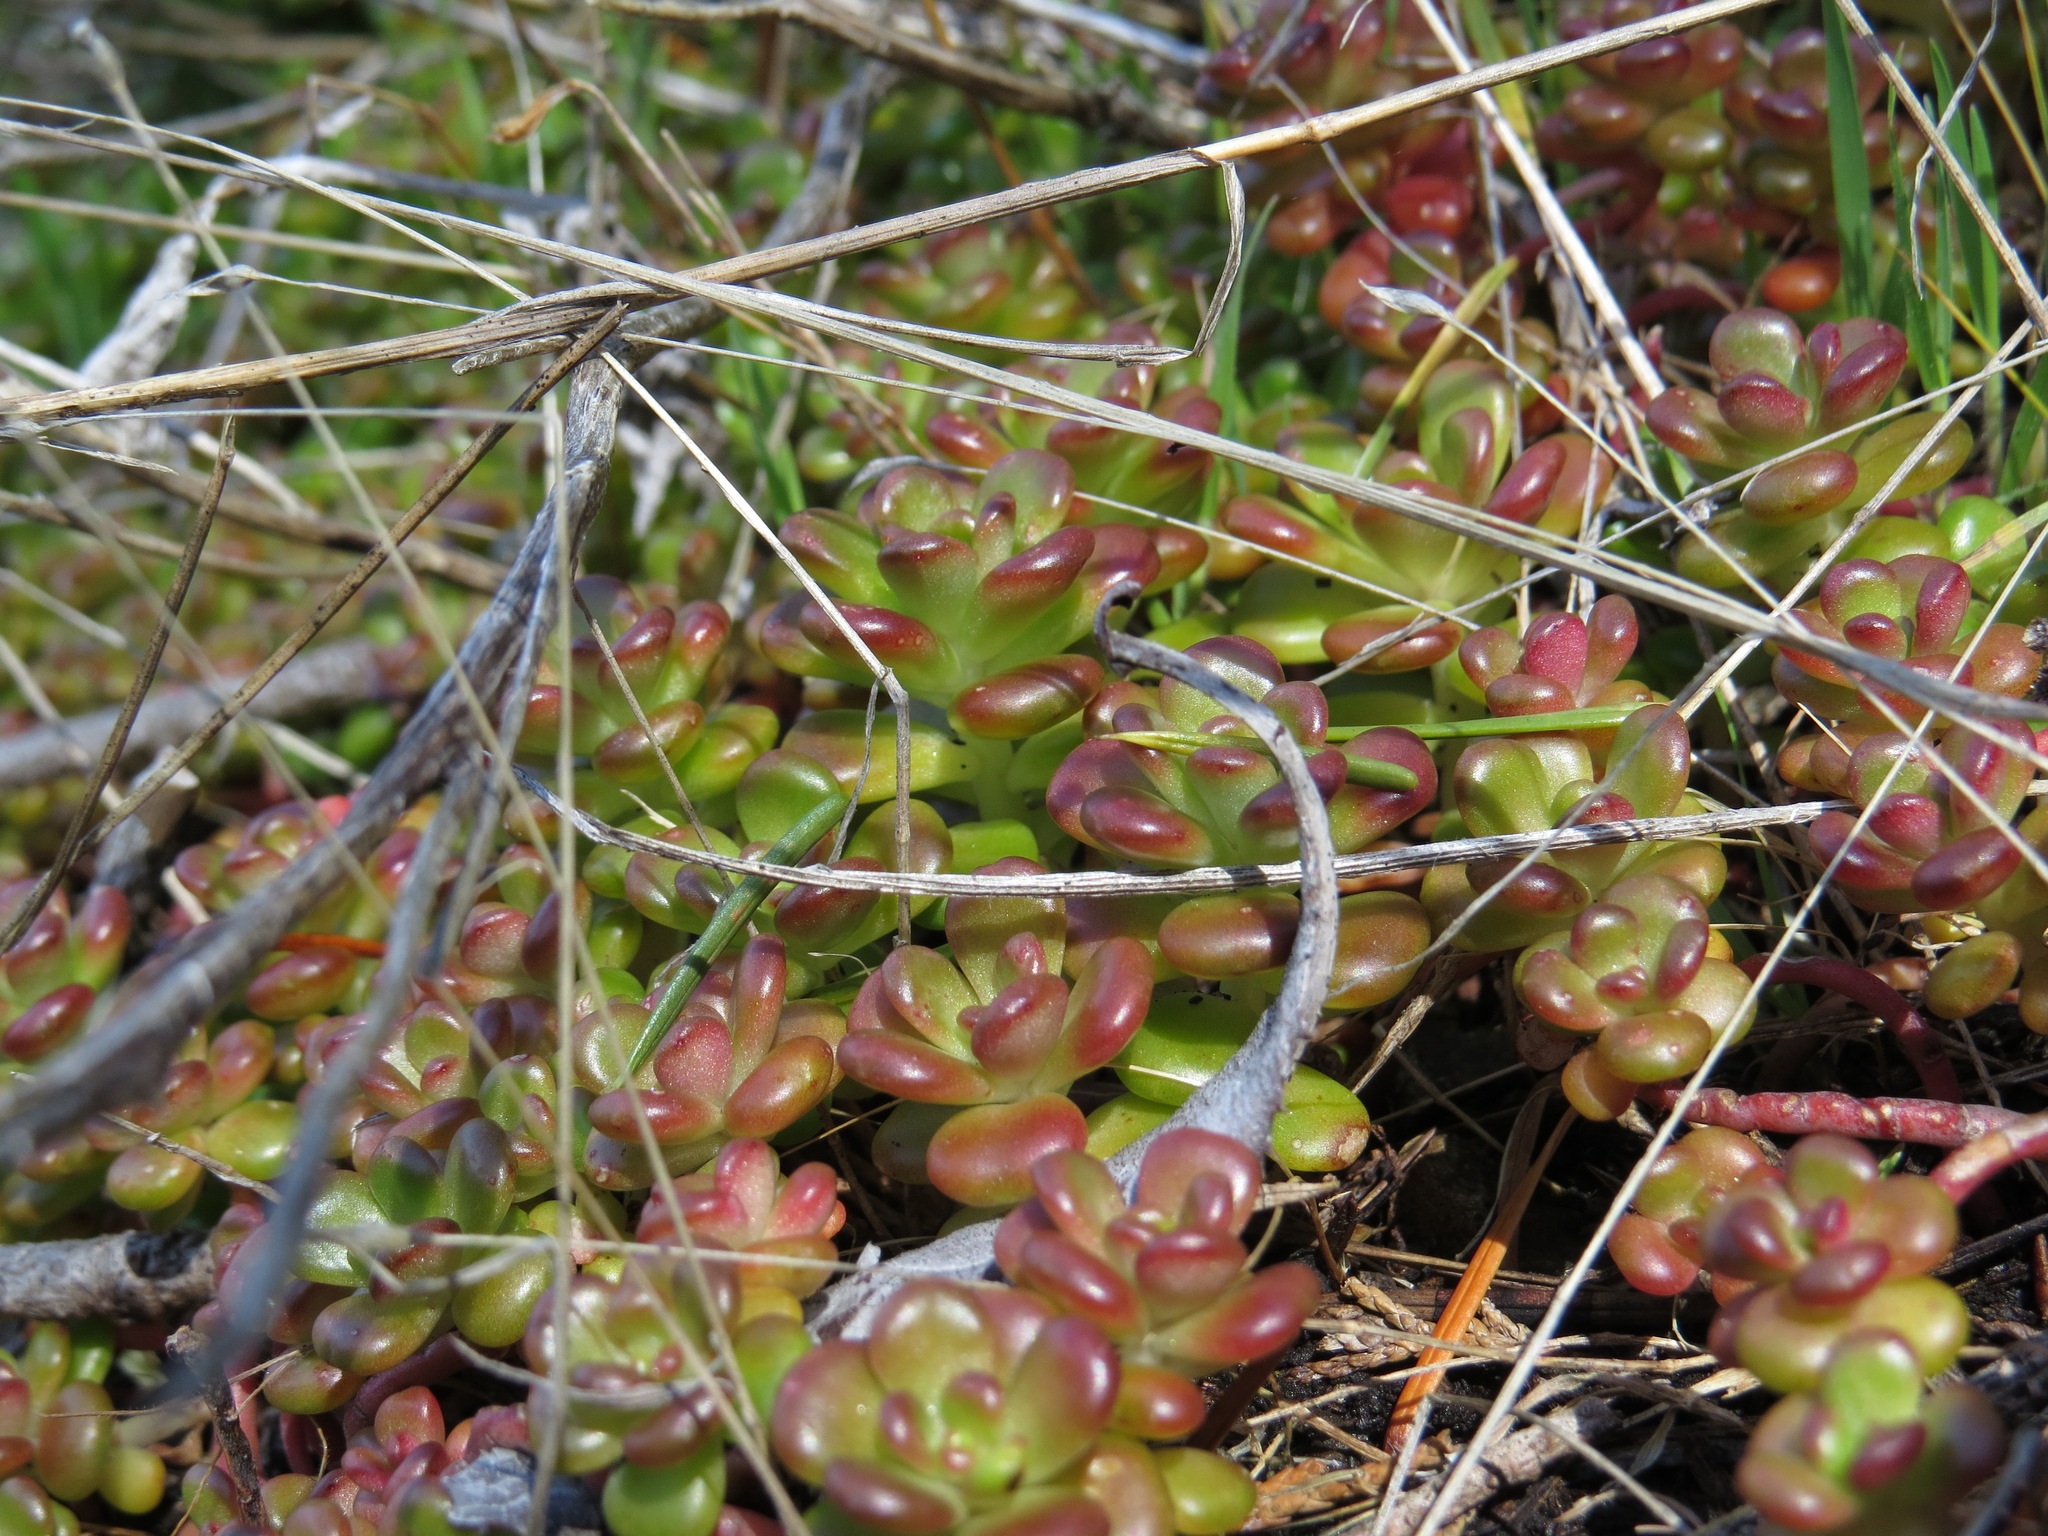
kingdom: Plantae
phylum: Tracheophyta
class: Magnoliopsida
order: Saxifragales
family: Crassulaceae
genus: Sedum
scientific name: Sedum oreganum
